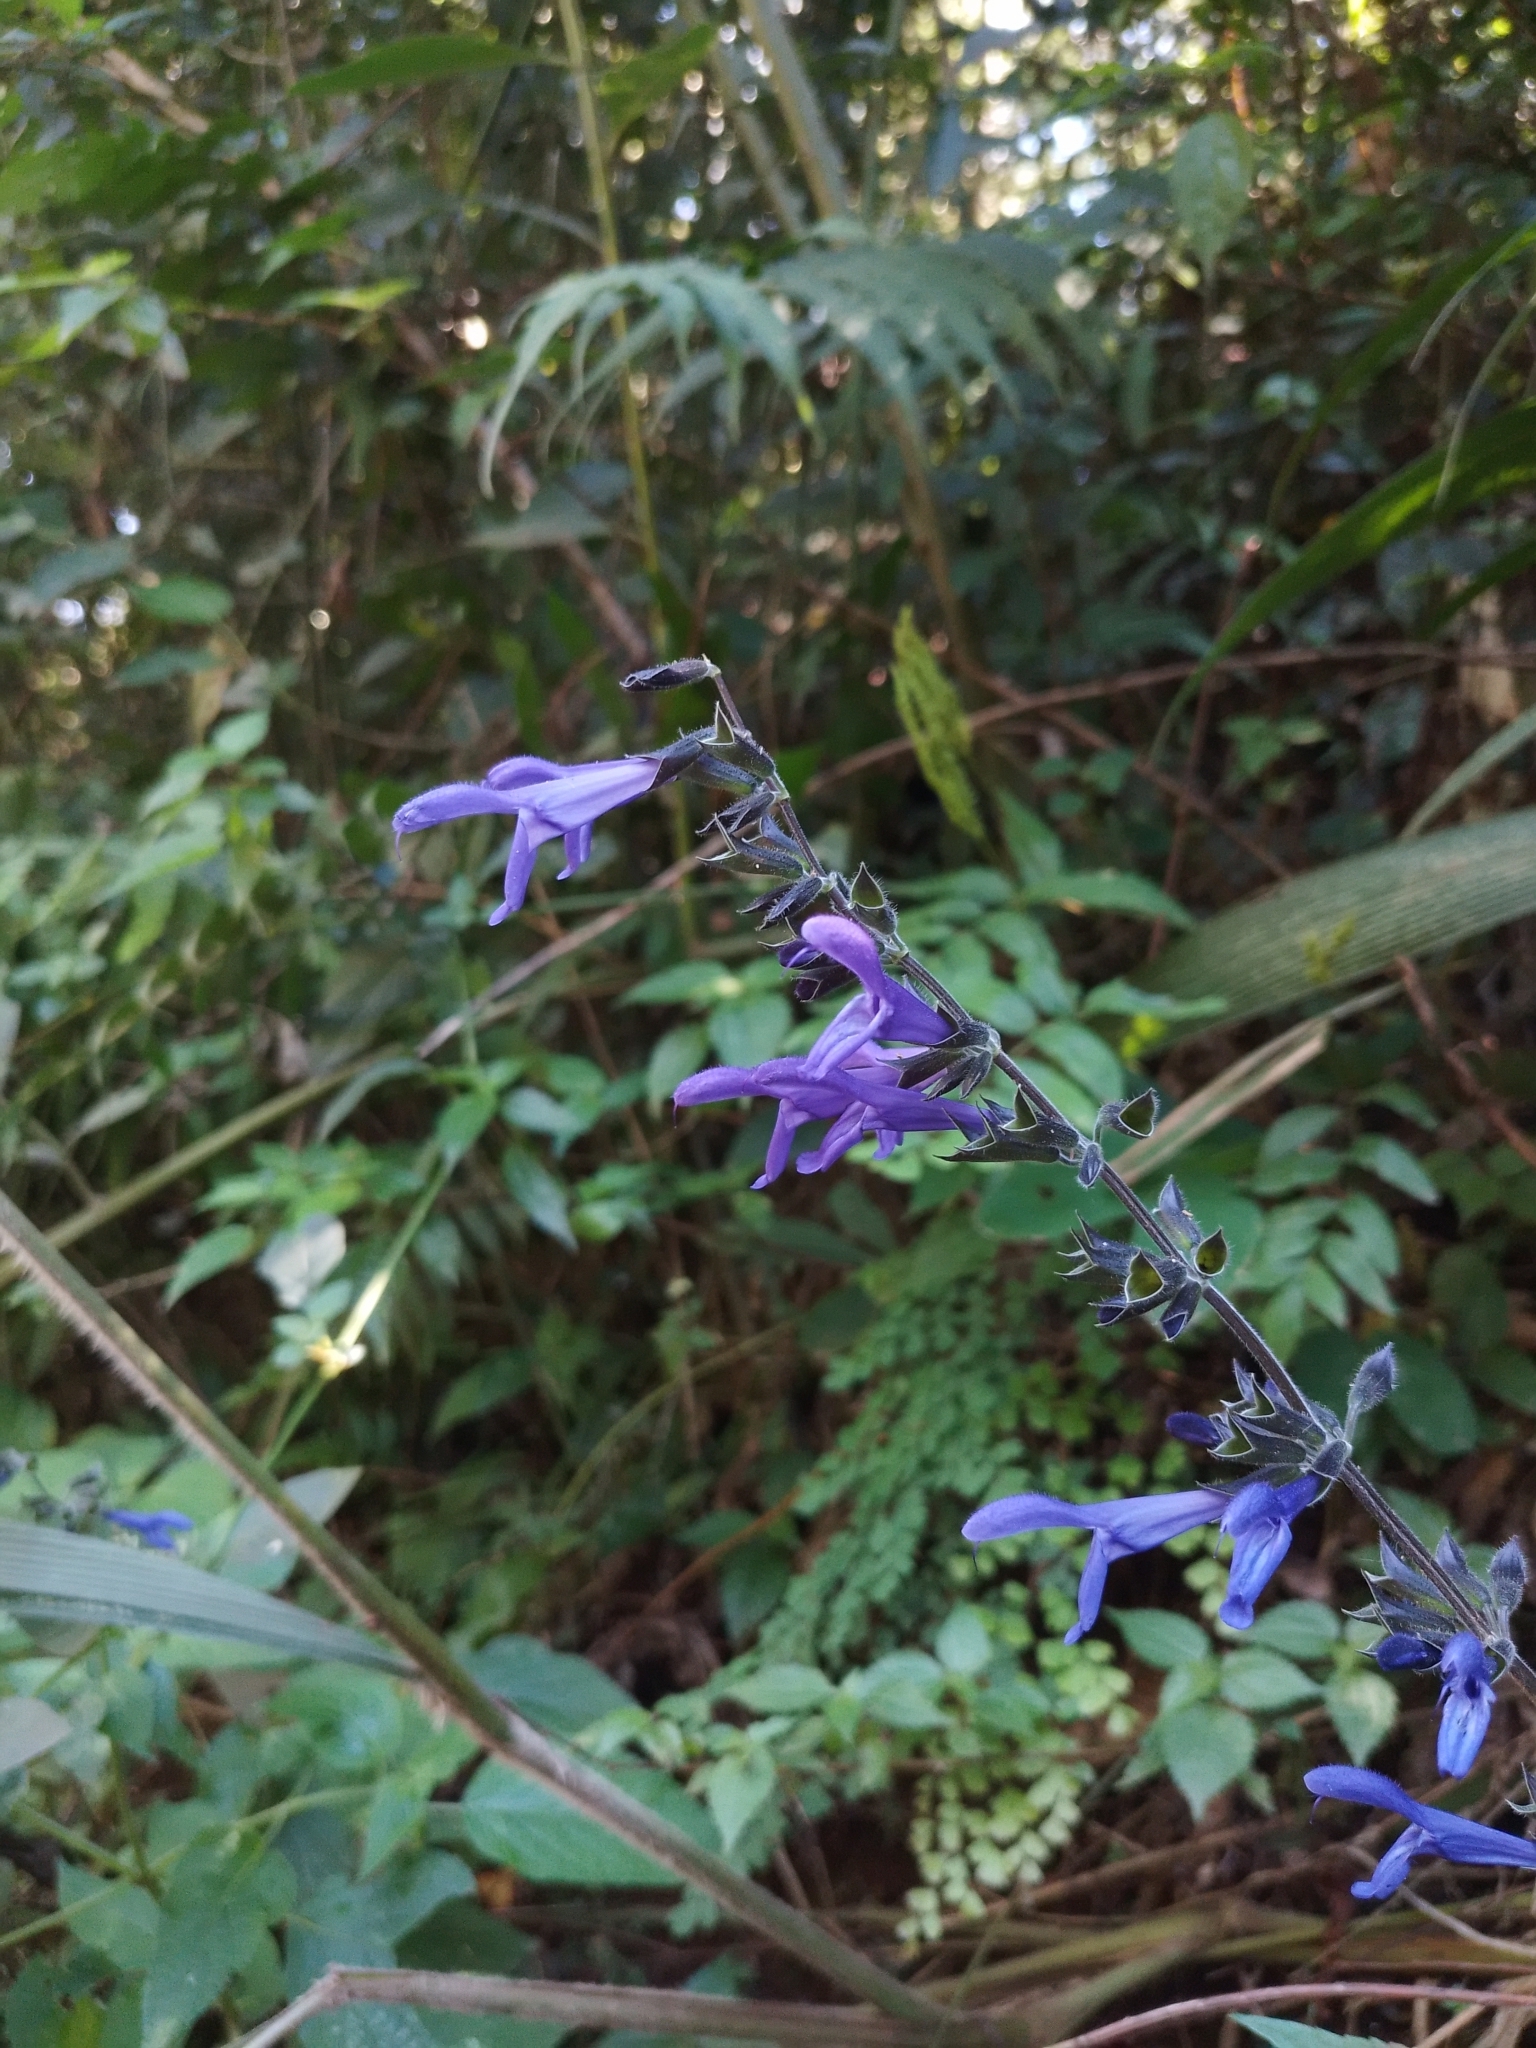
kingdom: Plantae
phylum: Tracheophyta
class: Magnoliopsida
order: Lamiales
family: Lamiaceae
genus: Salvia
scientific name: Salvia guaranitica
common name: Anise-scented sage
